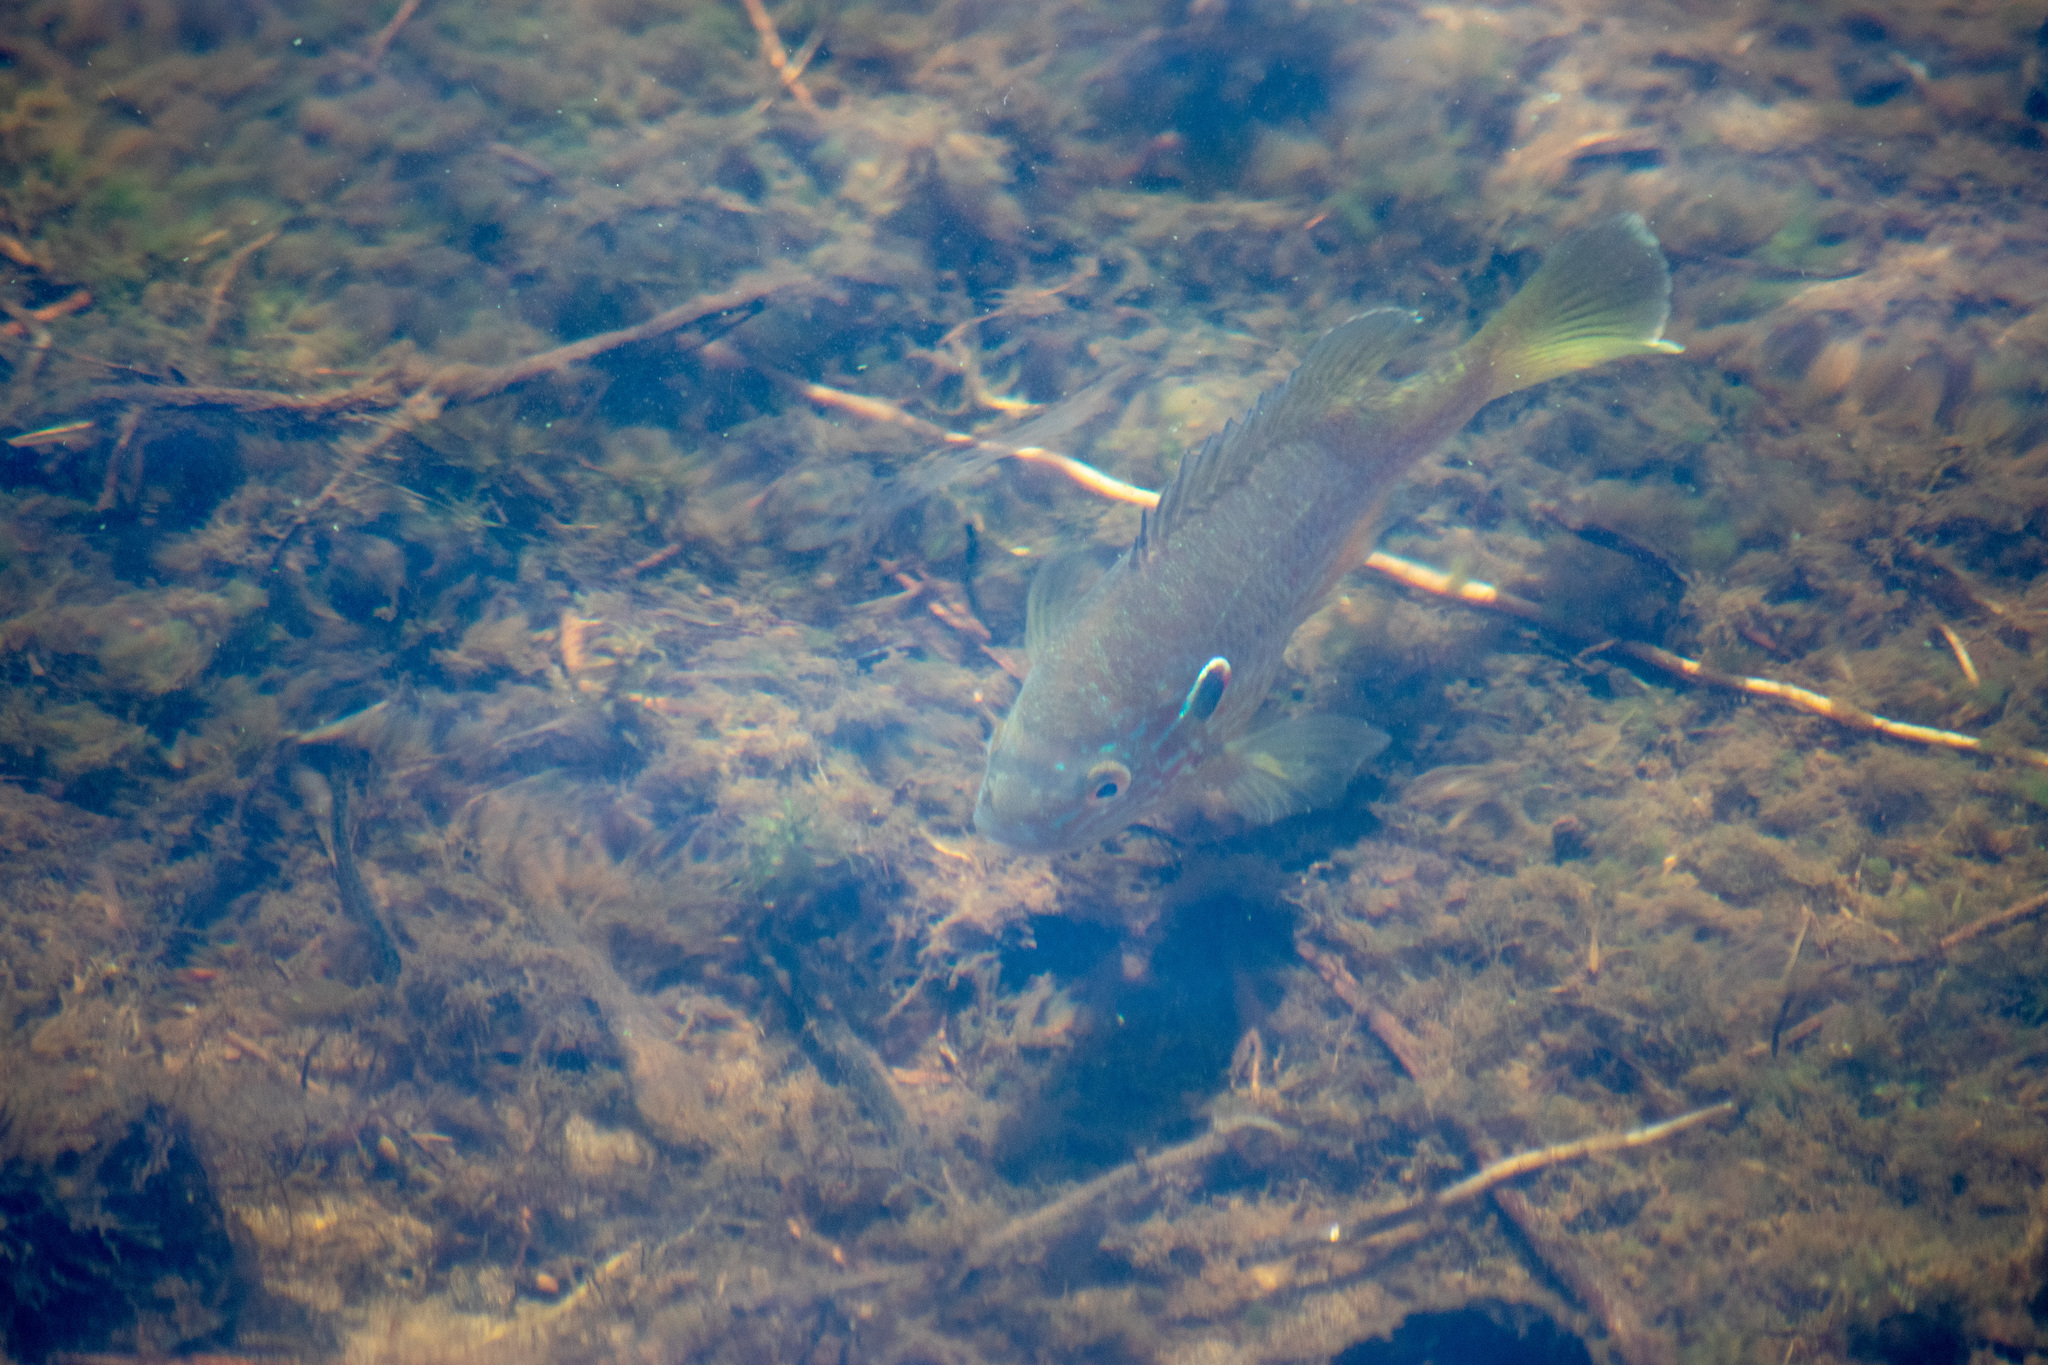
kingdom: Animalia
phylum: Chordata
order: Perciformes
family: Centrarchidae
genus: Lepomis
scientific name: Lepomis gibbosus
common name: Pumpkinseed
